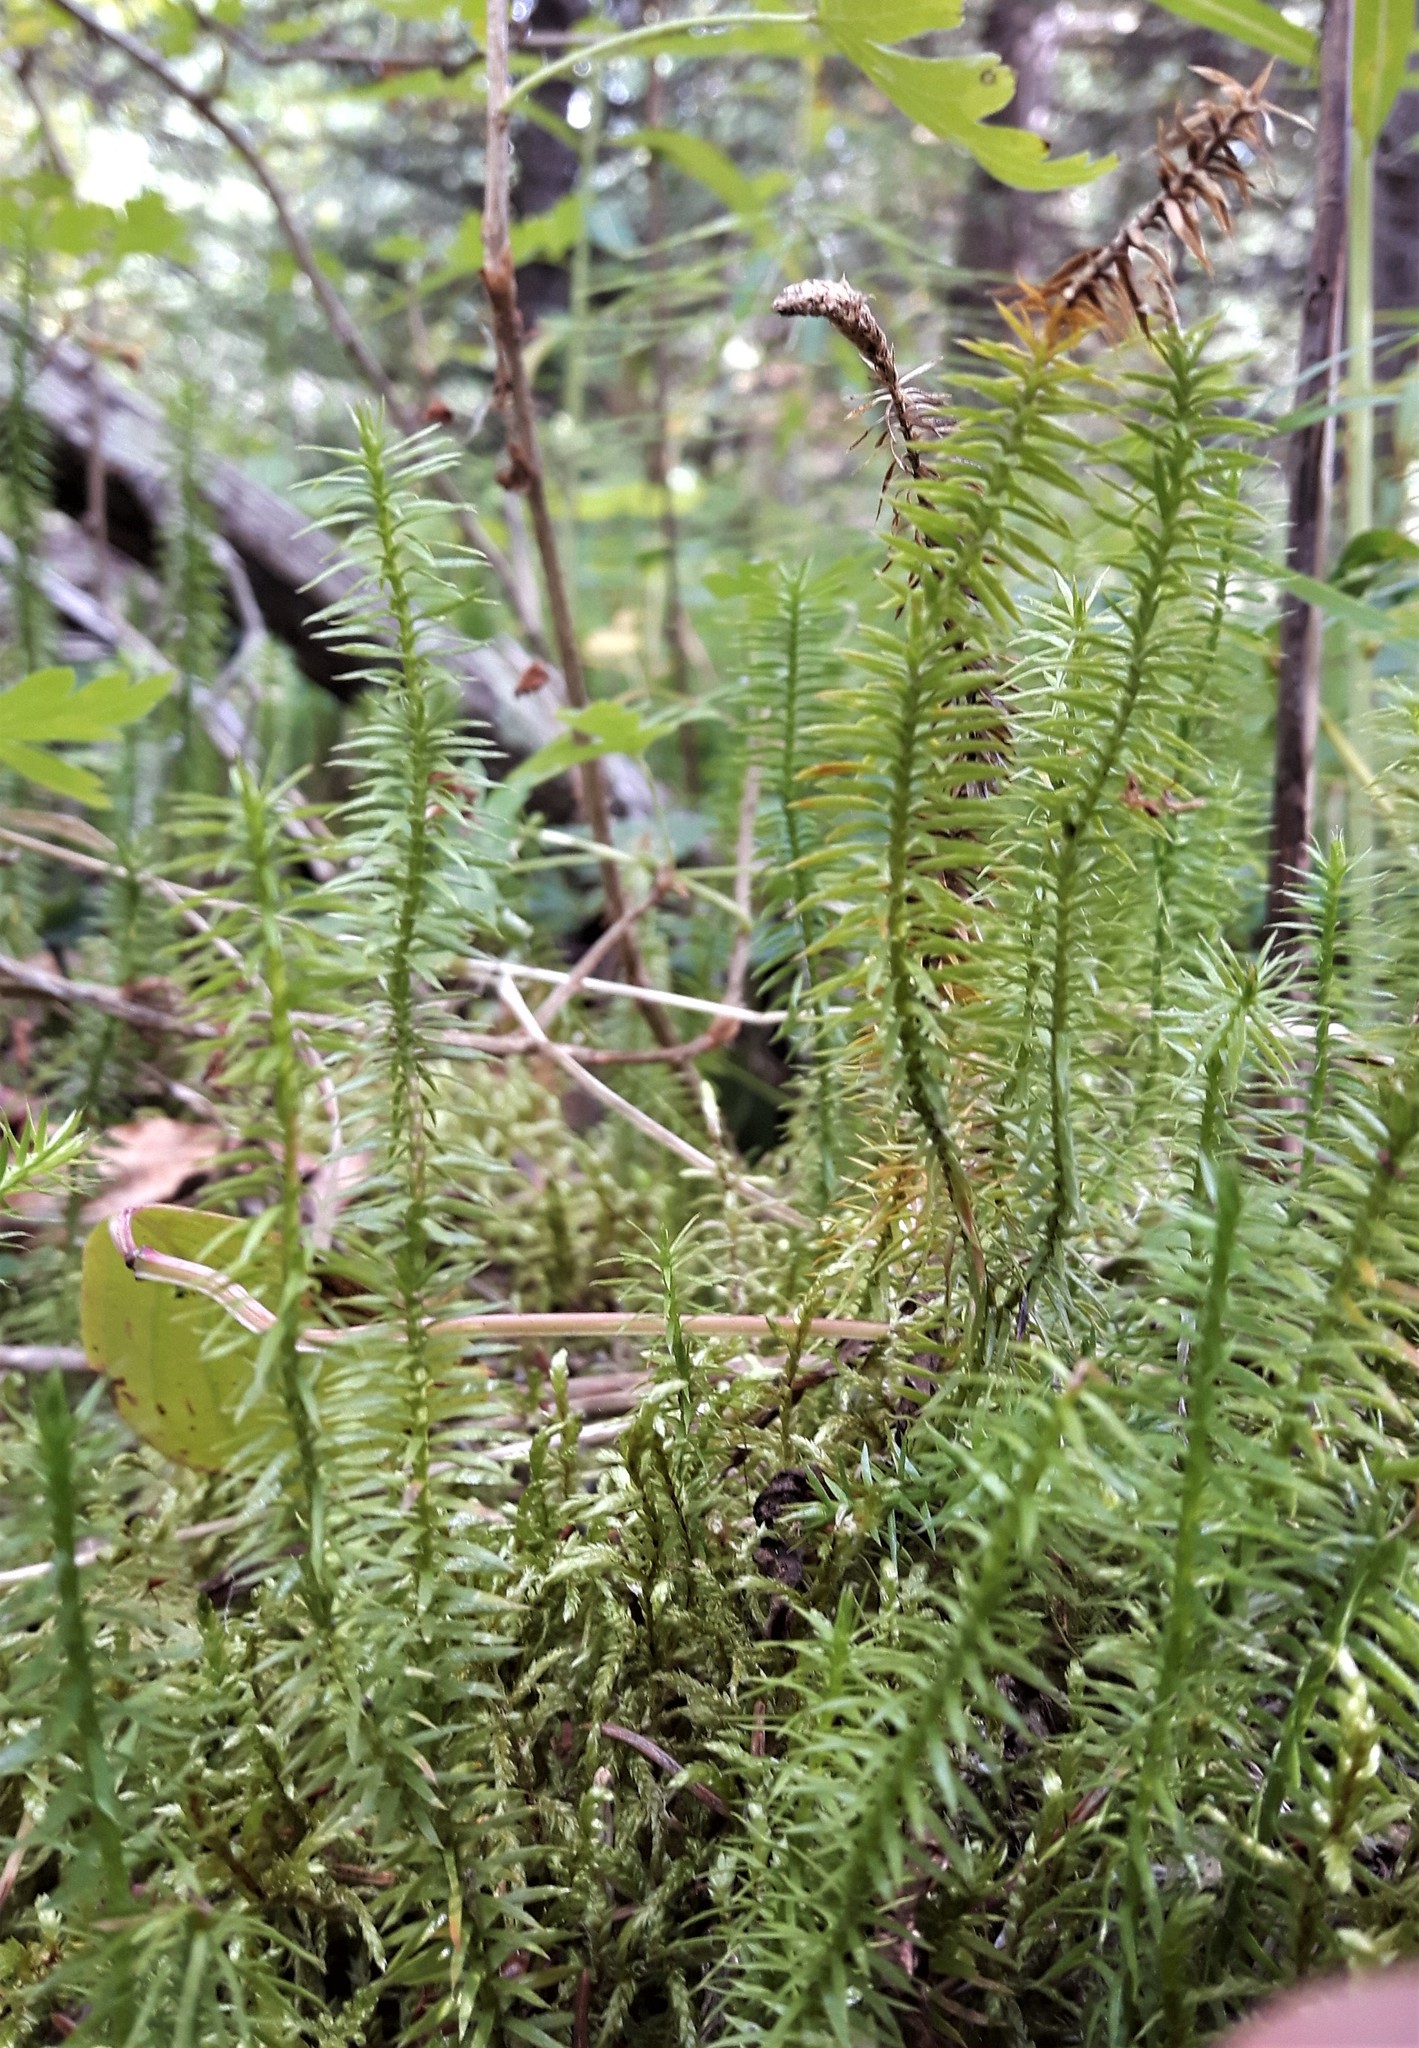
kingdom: Plantae
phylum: Tracheophyta
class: Lycopodiopsida
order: Lycopodiales
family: Lycopodiaceae
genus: Spinulum
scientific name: Spinulum annotinum
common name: Interrupted club-moss
